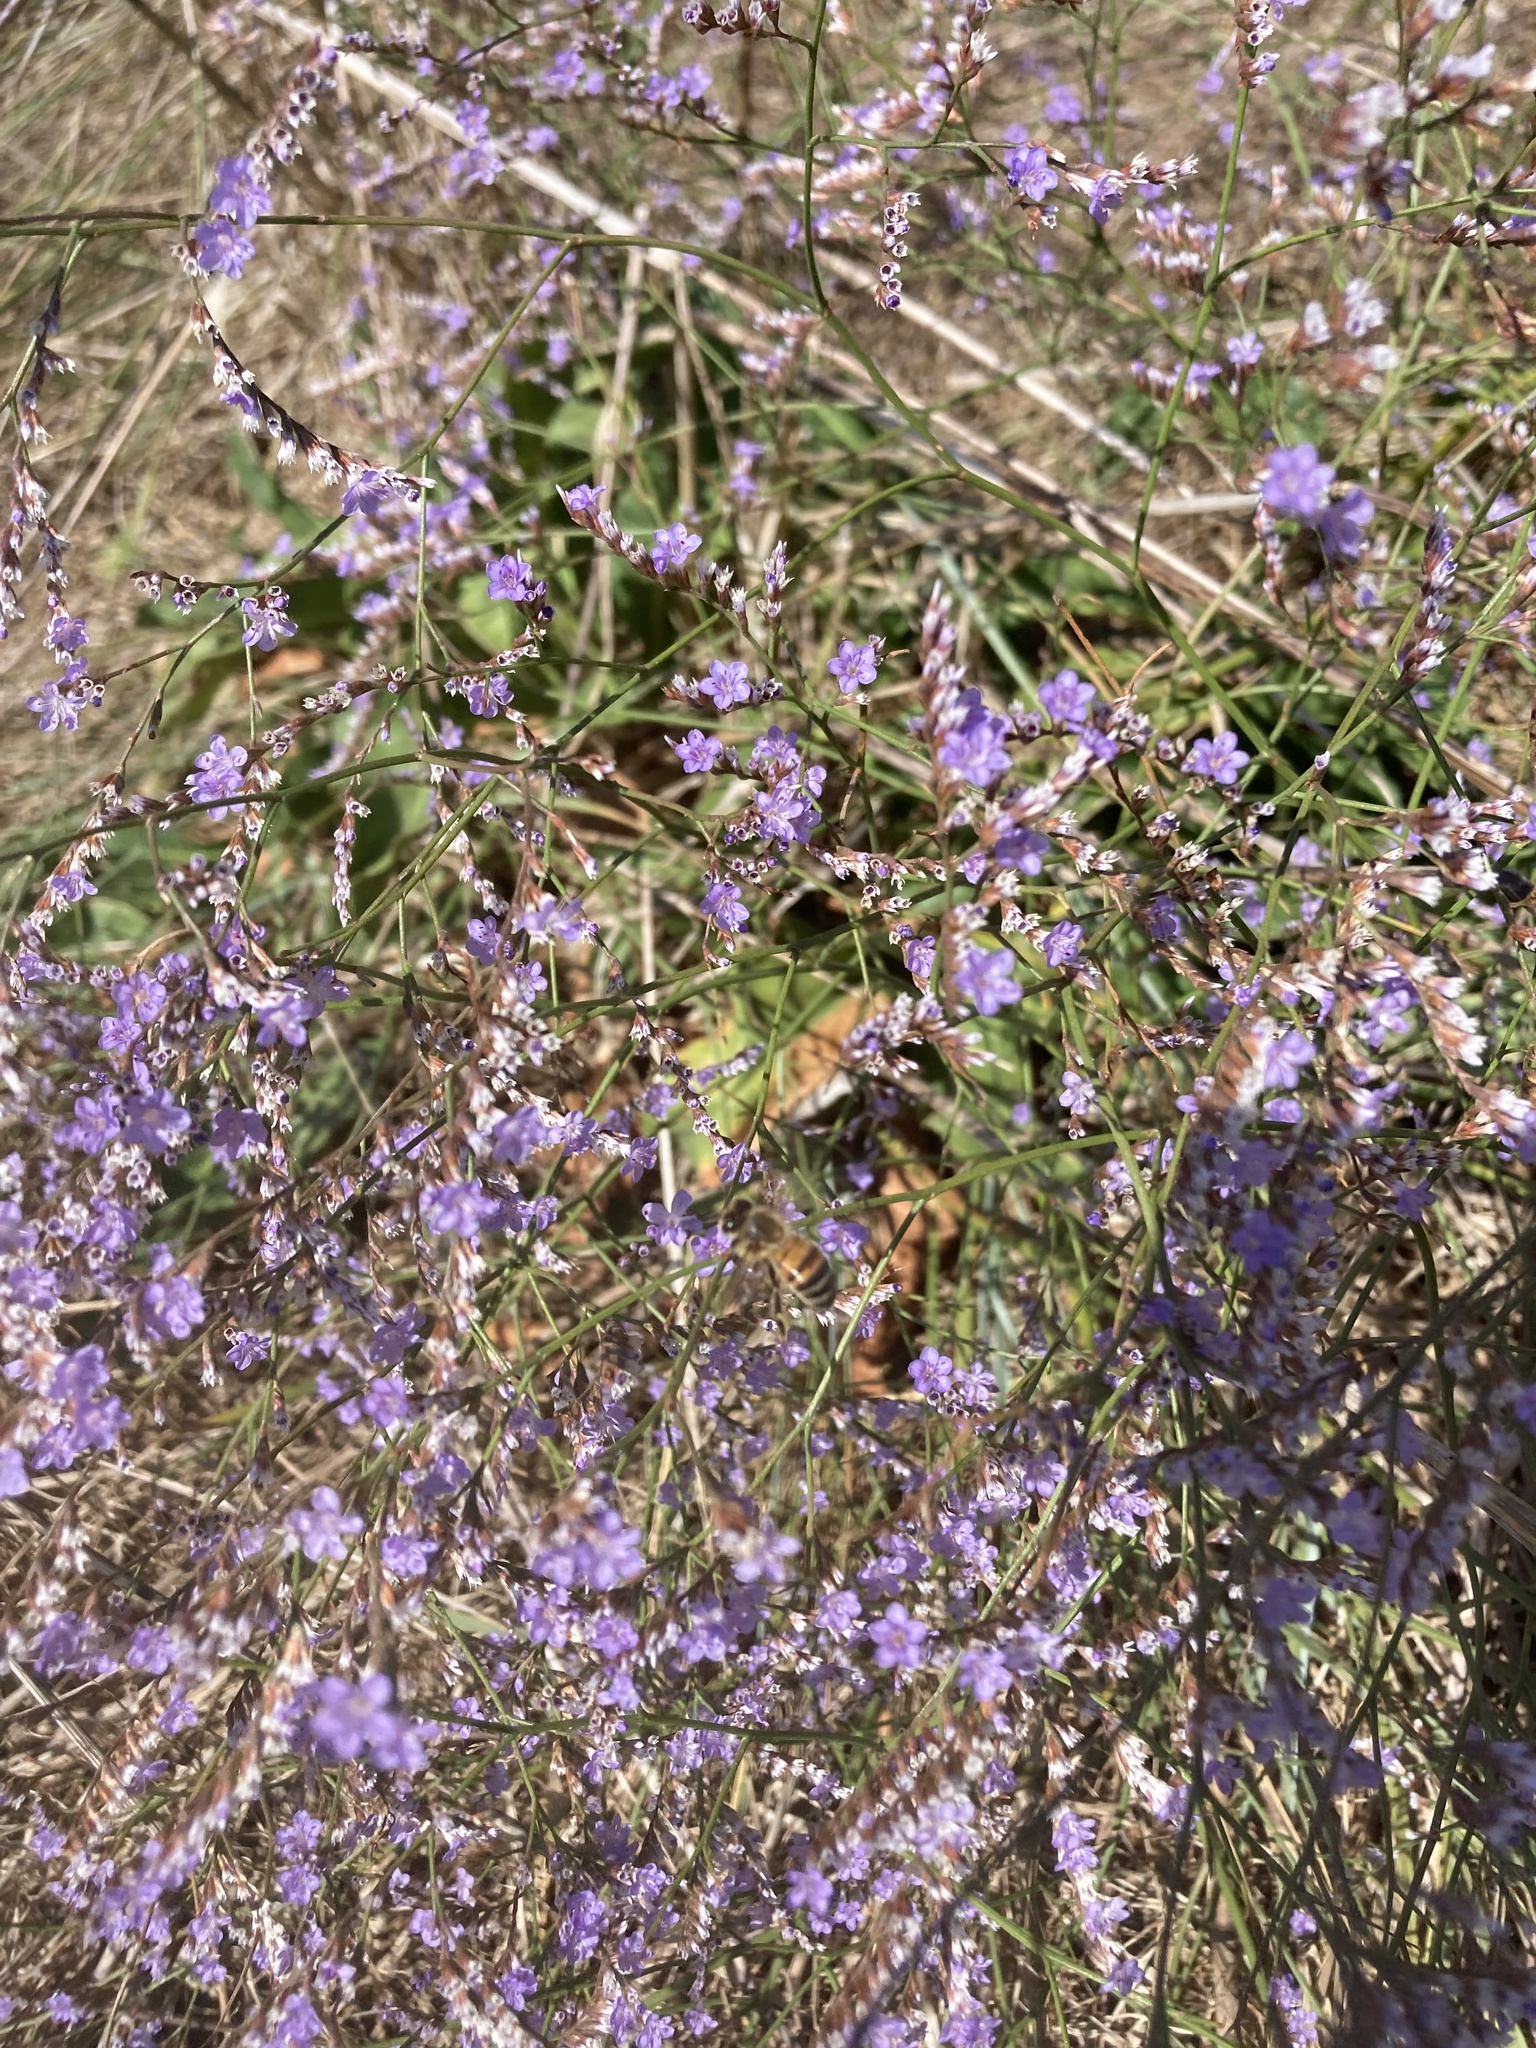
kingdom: Plantae
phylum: Tracheophyta
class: Magnoliopsida
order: Caryophyllales
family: Plumbaginaceae
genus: Limonium
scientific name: Limonium narbonense
